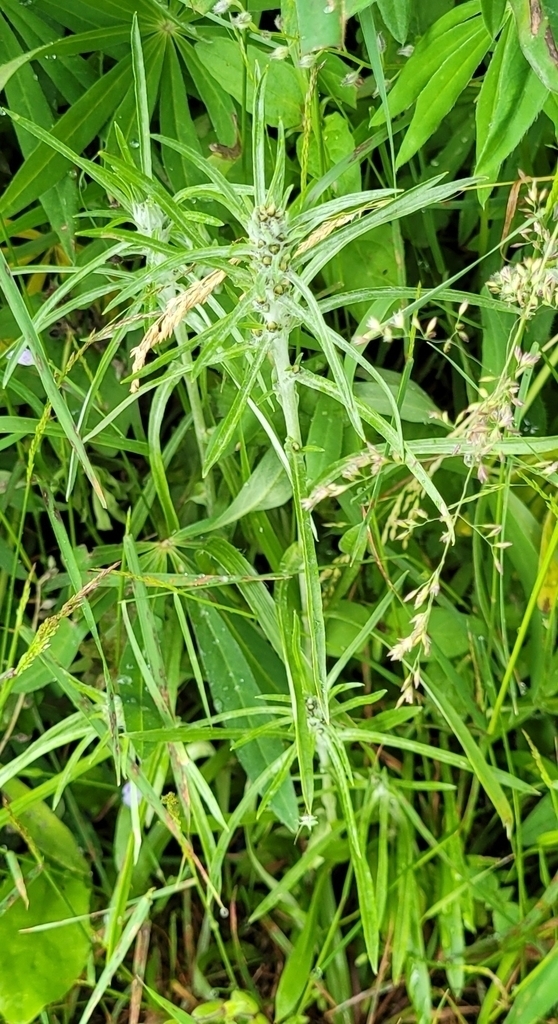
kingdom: Plantae
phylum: Tracheophyta
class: Magnoliopsida
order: Asterales
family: Asteraceae
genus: Omalotheca
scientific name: Omalotheca sylvatica
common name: Heath cudweed
